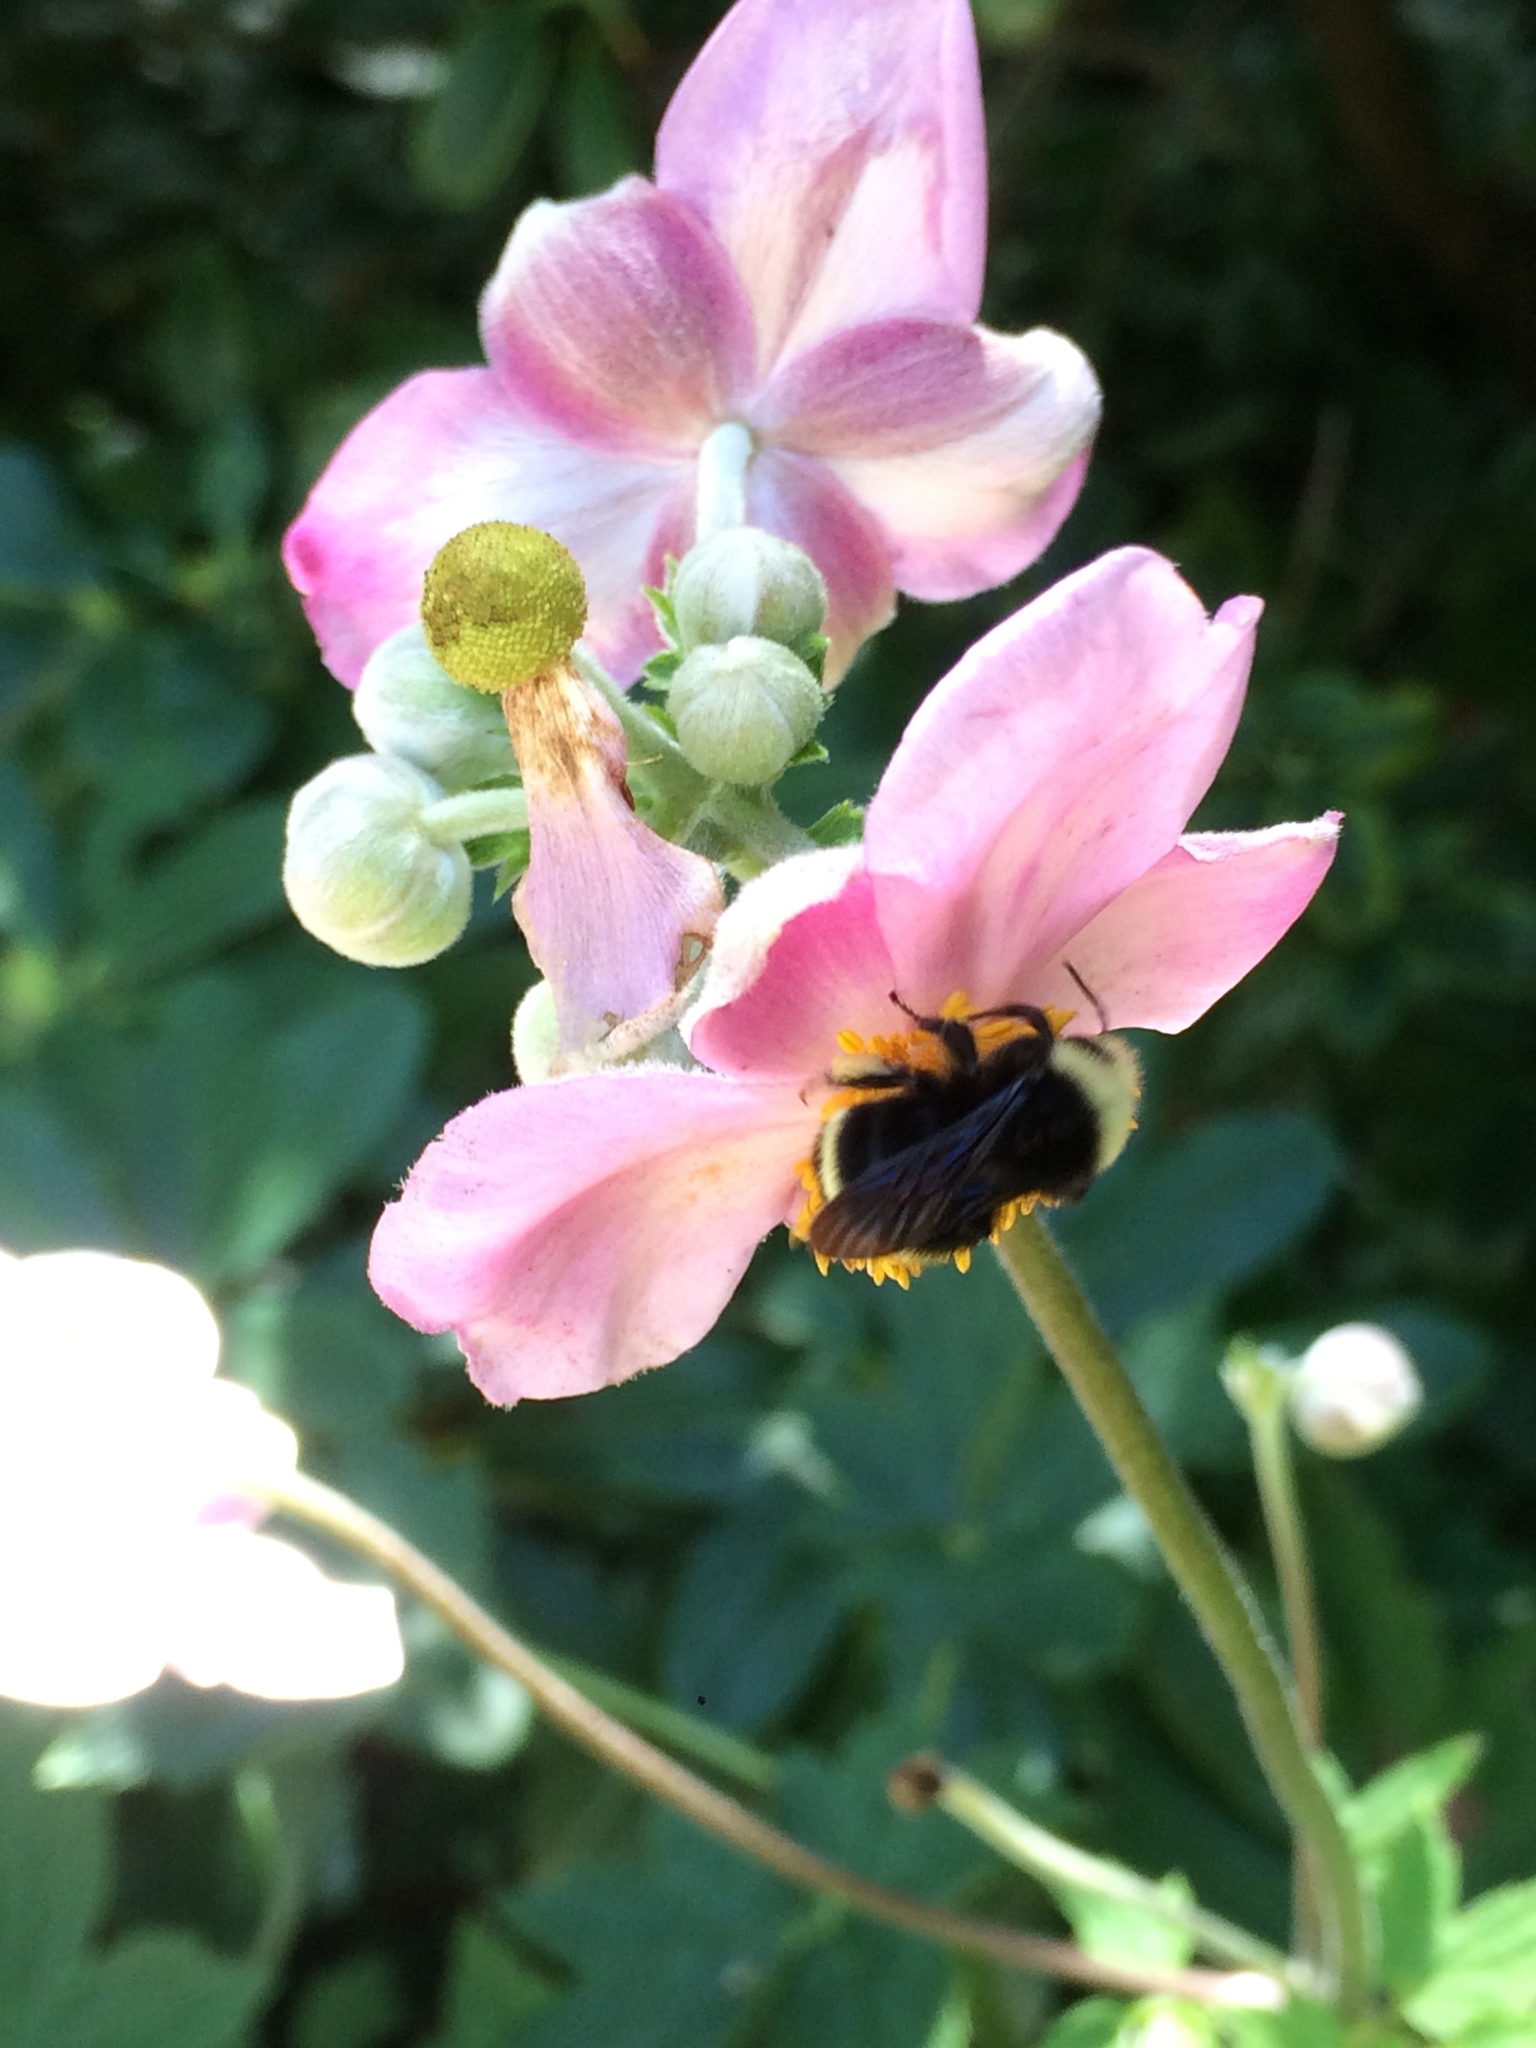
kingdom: Animalia
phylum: Arthropoda
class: Insecta
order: Hymenoptera
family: Apidae
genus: Bombus
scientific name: Bombus vosnesenskii
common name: Vosnesensky bumble bee
